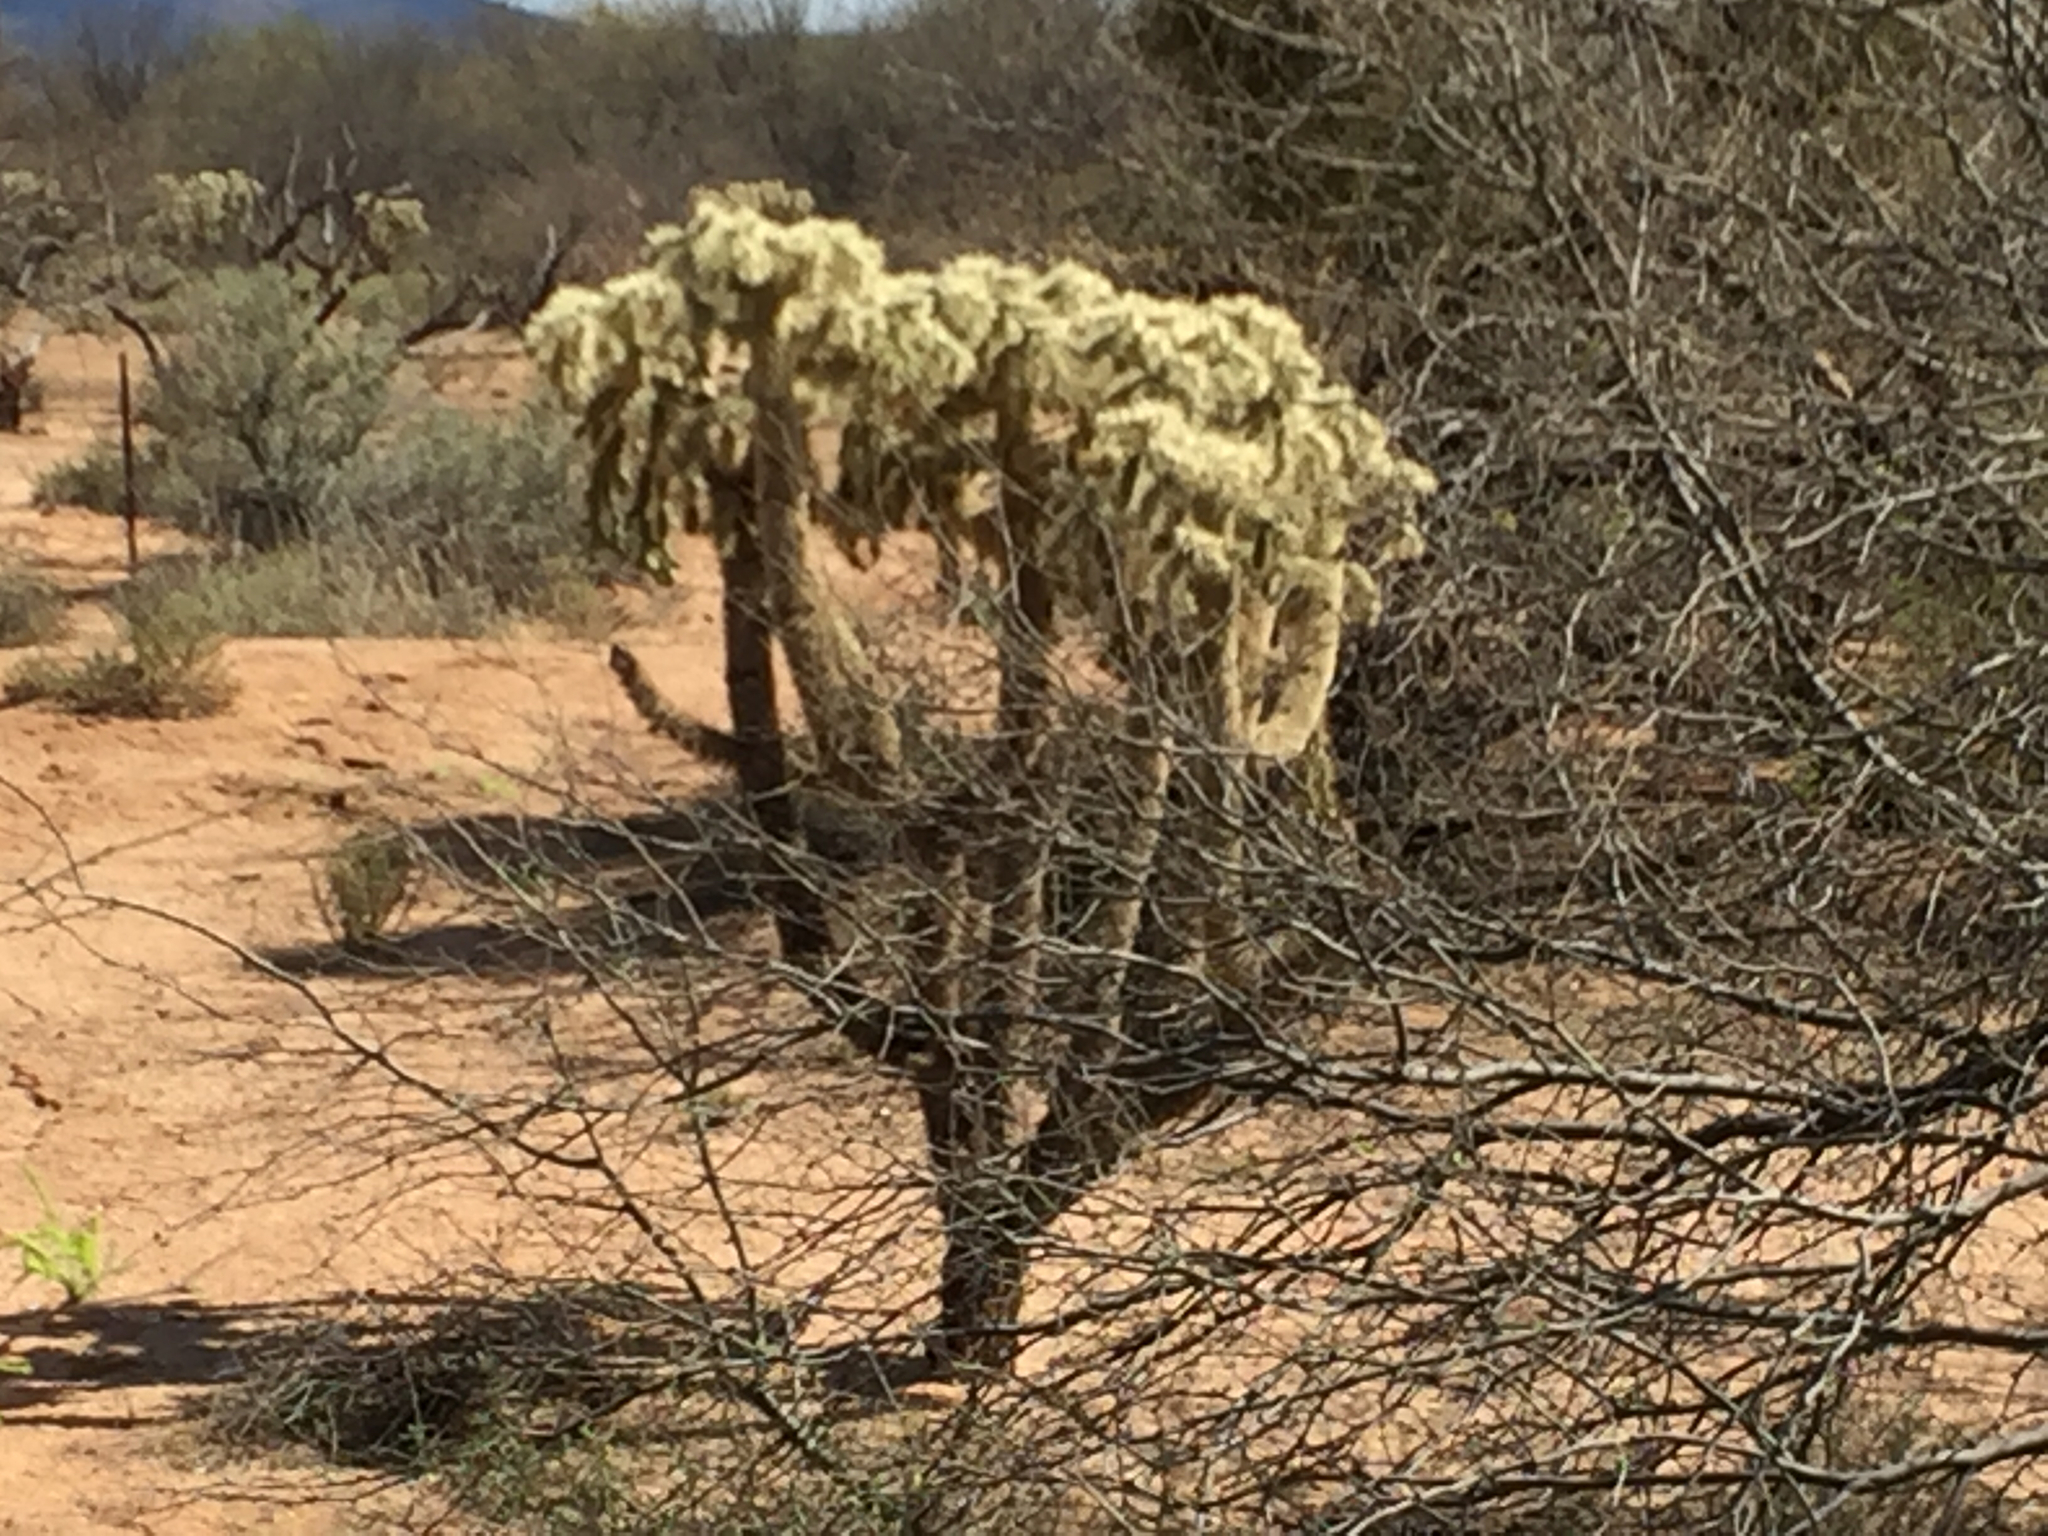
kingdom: Plantae
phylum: Tracheophyta
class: Magnoliopsida
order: Caryophyllales
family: Cactaceae
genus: Cylindropuntia
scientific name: Cylindropuntia fulgida
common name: Jumping cholla
